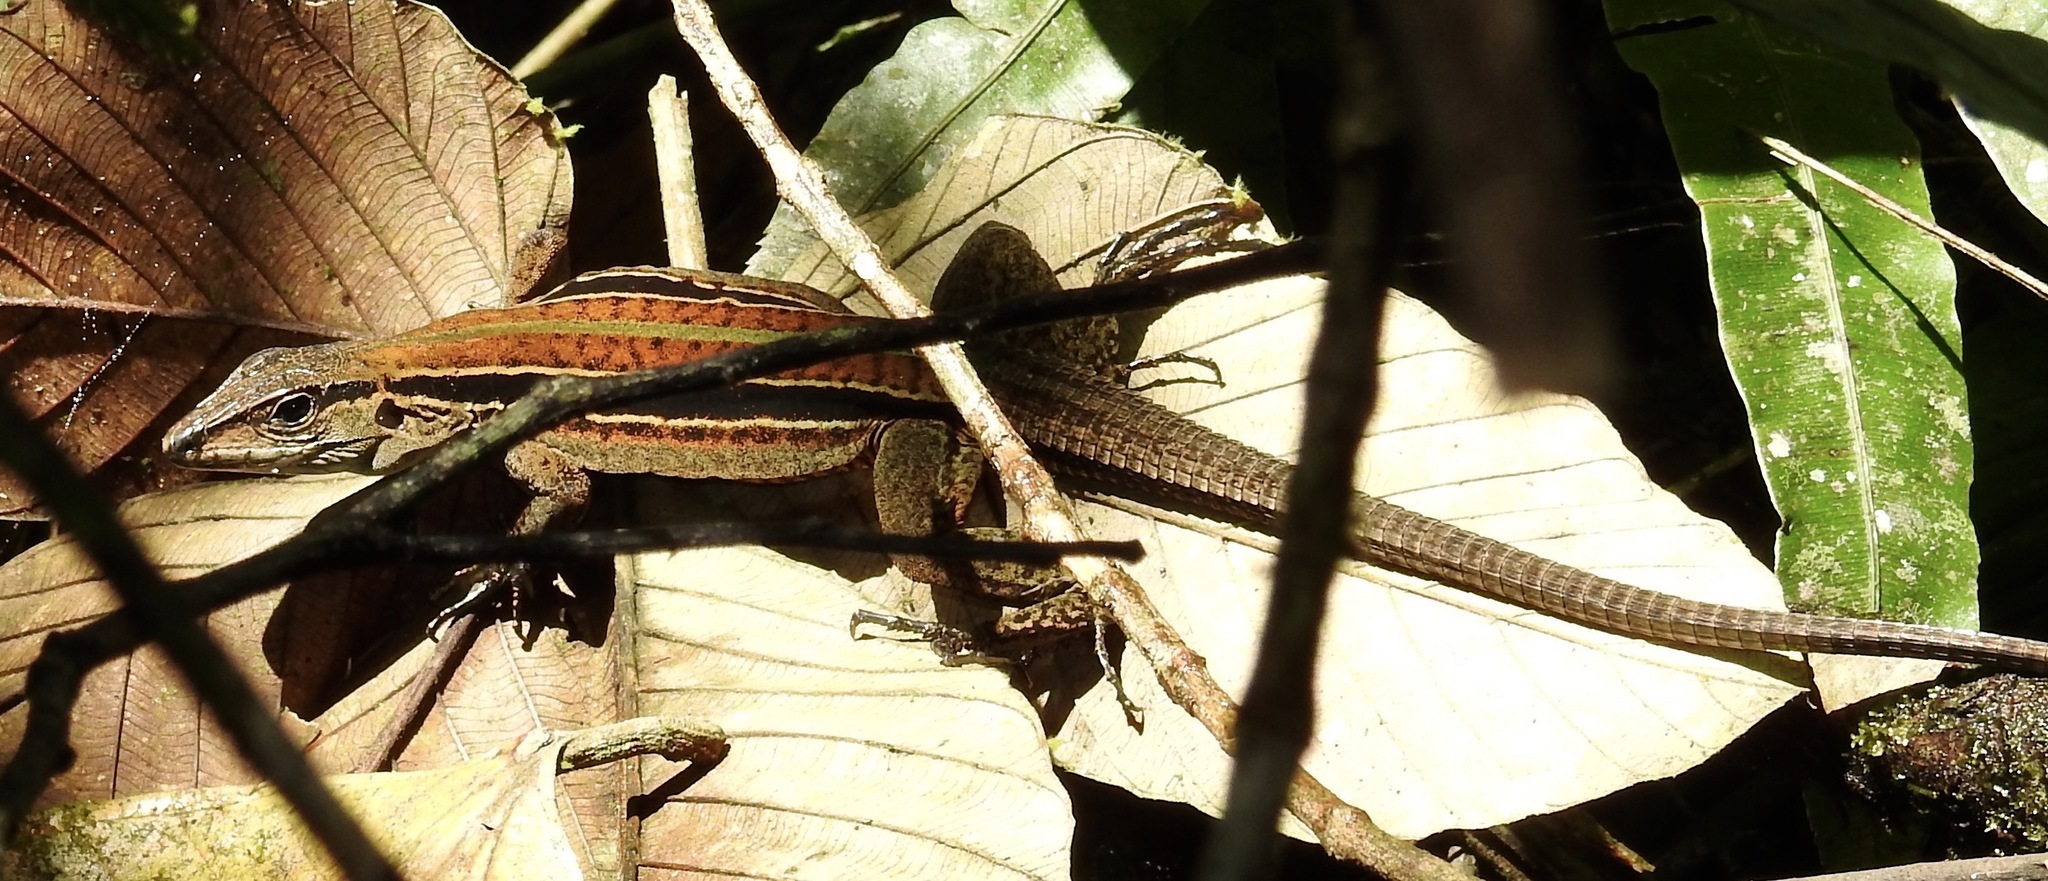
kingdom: Animalia
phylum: Chordata
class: Squamata
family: Teiidae
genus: Holcosus
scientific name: Holcosus septemlineatus
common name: Seven-lined ameiva
